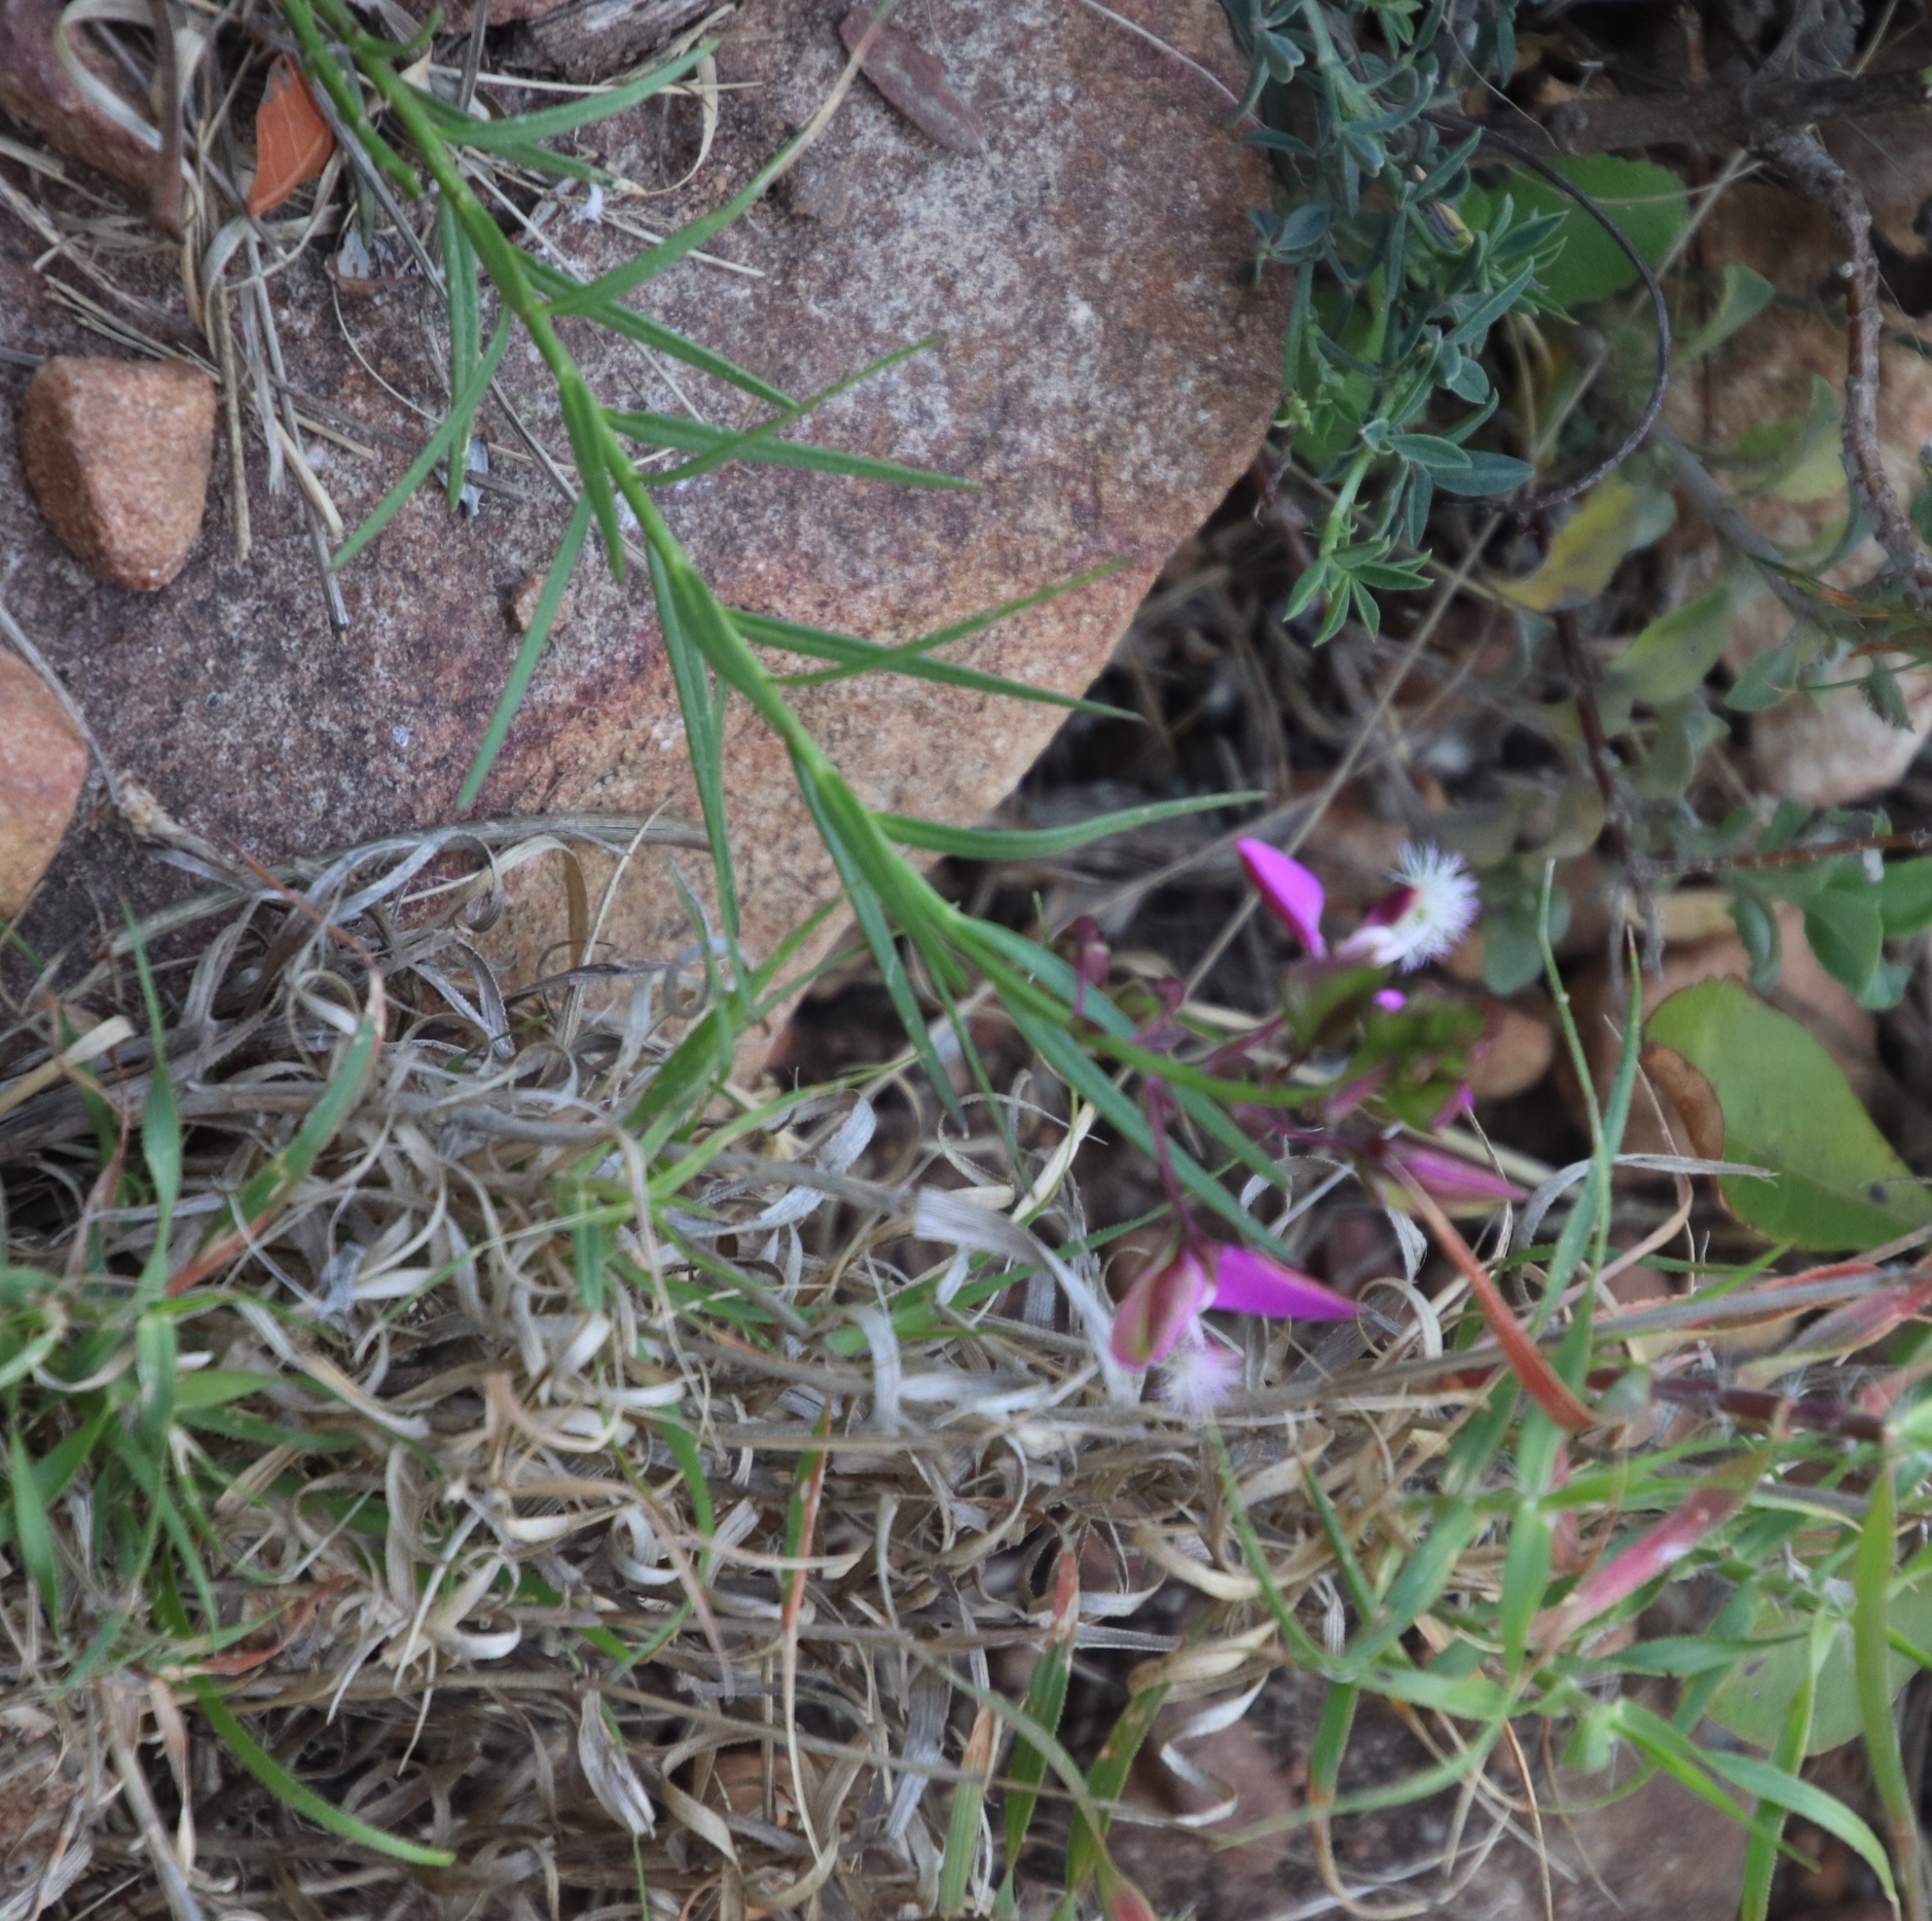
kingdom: Plantae
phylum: Tracheophyta
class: Magnoliopsida
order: Fabales
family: Polygalaceae
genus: Polygala
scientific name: Polygala bracteolata
